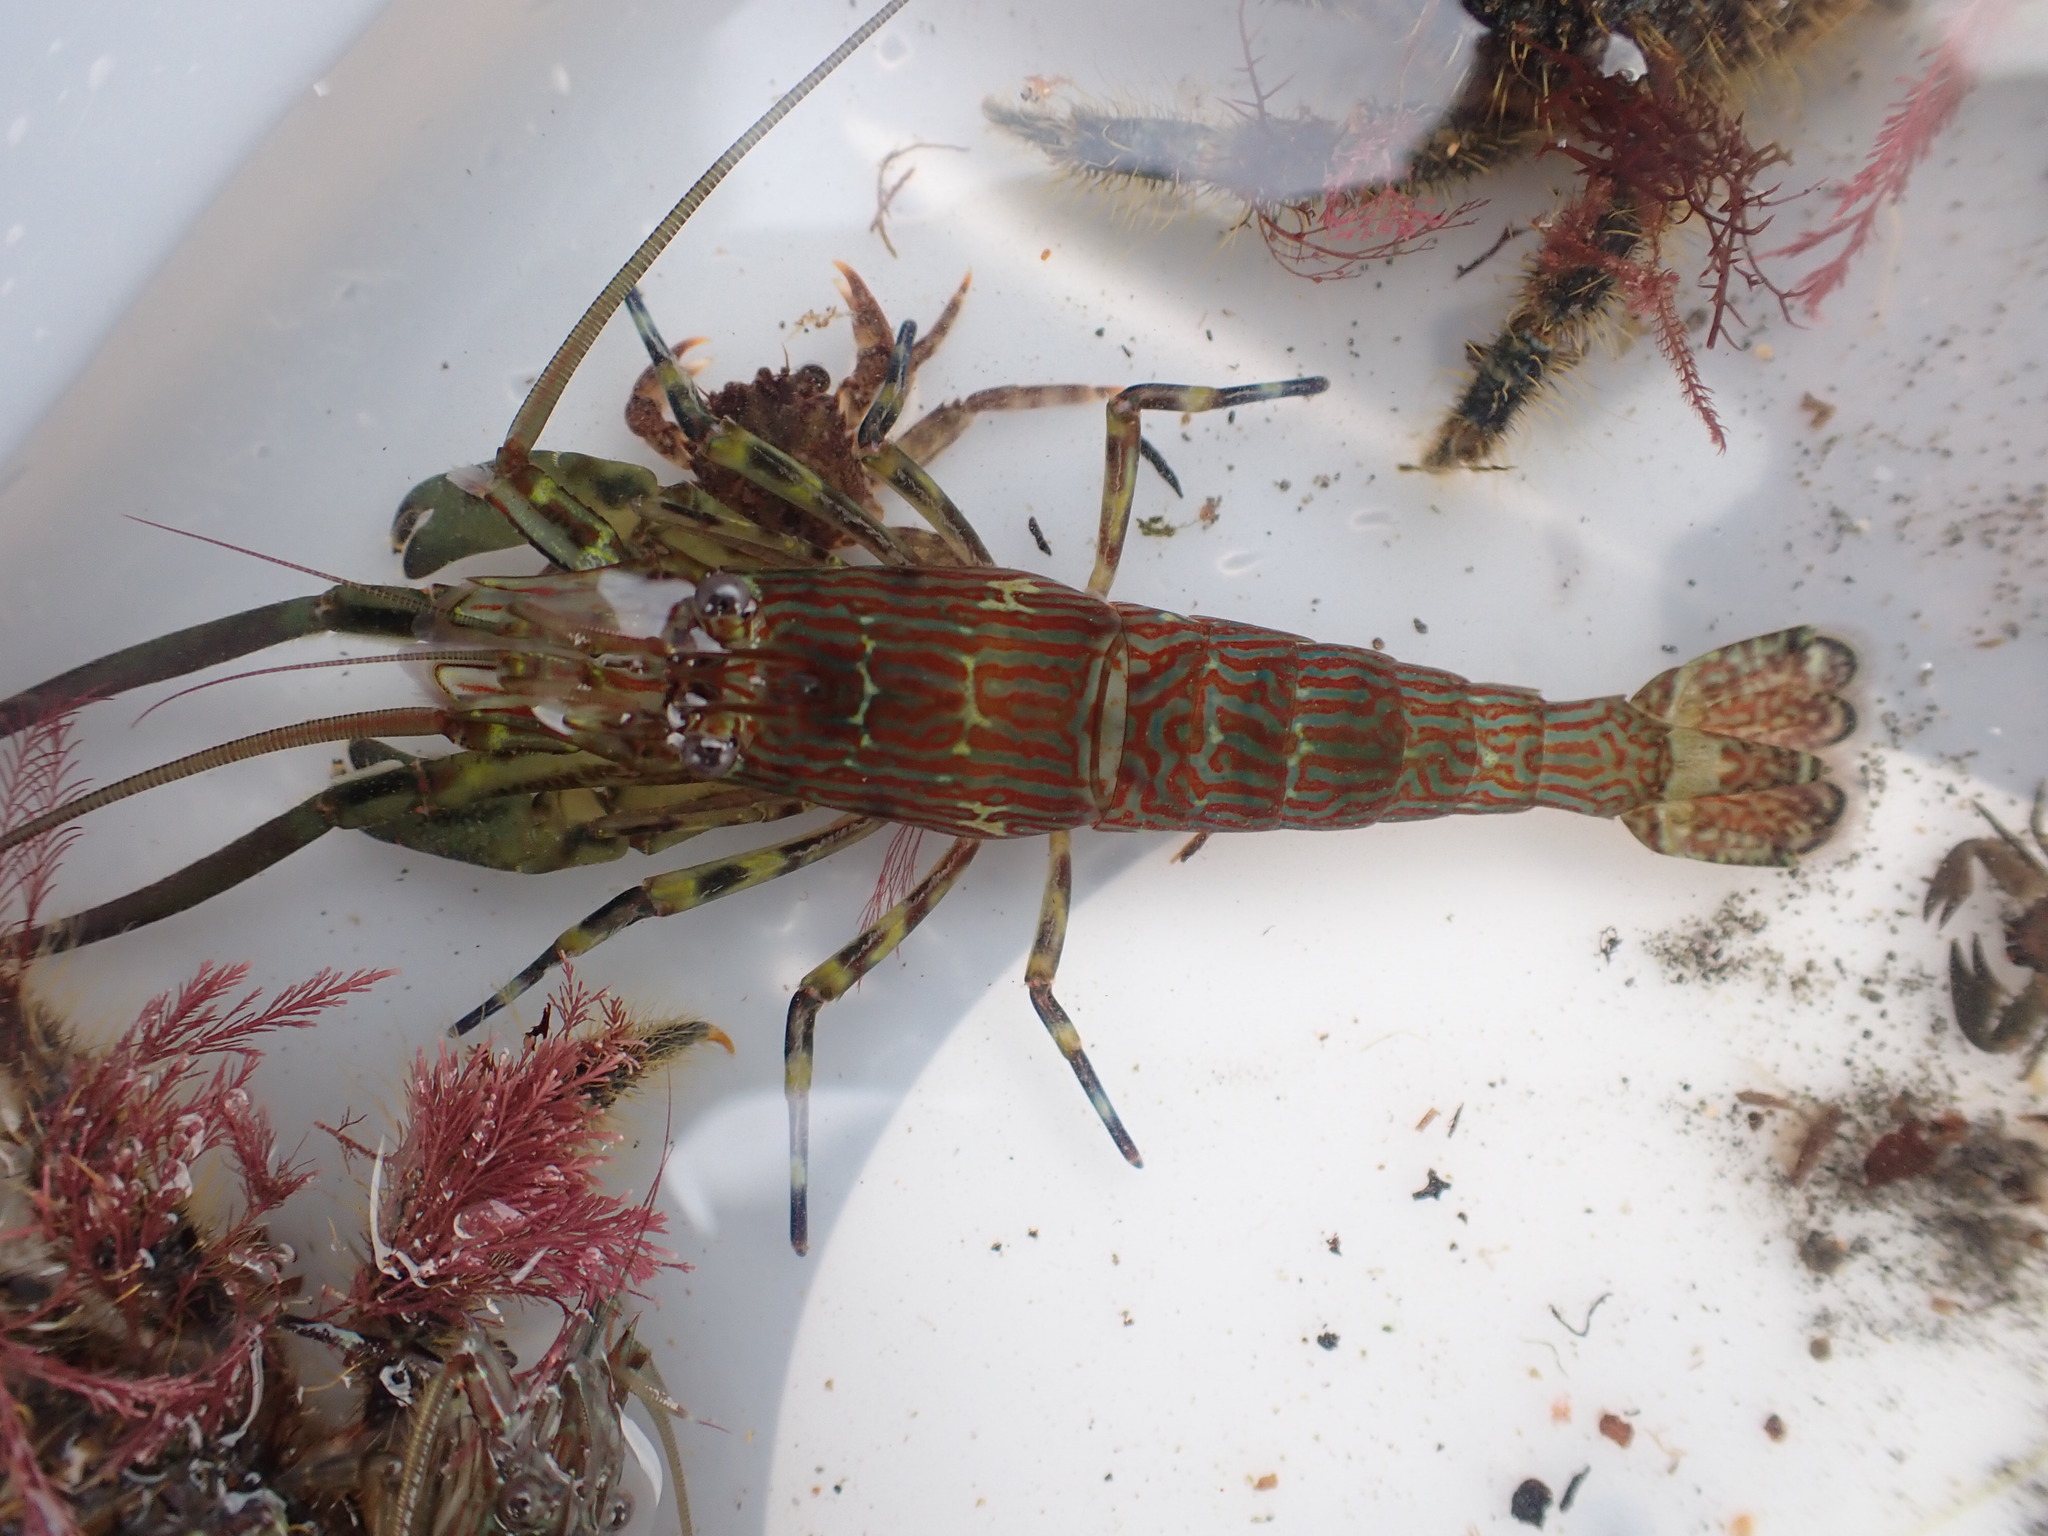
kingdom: Animalia
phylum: Arthropoda
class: Malacostraca
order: Decapoda
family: Hippolytidae
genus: Alope
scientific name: Alope spinifrons
